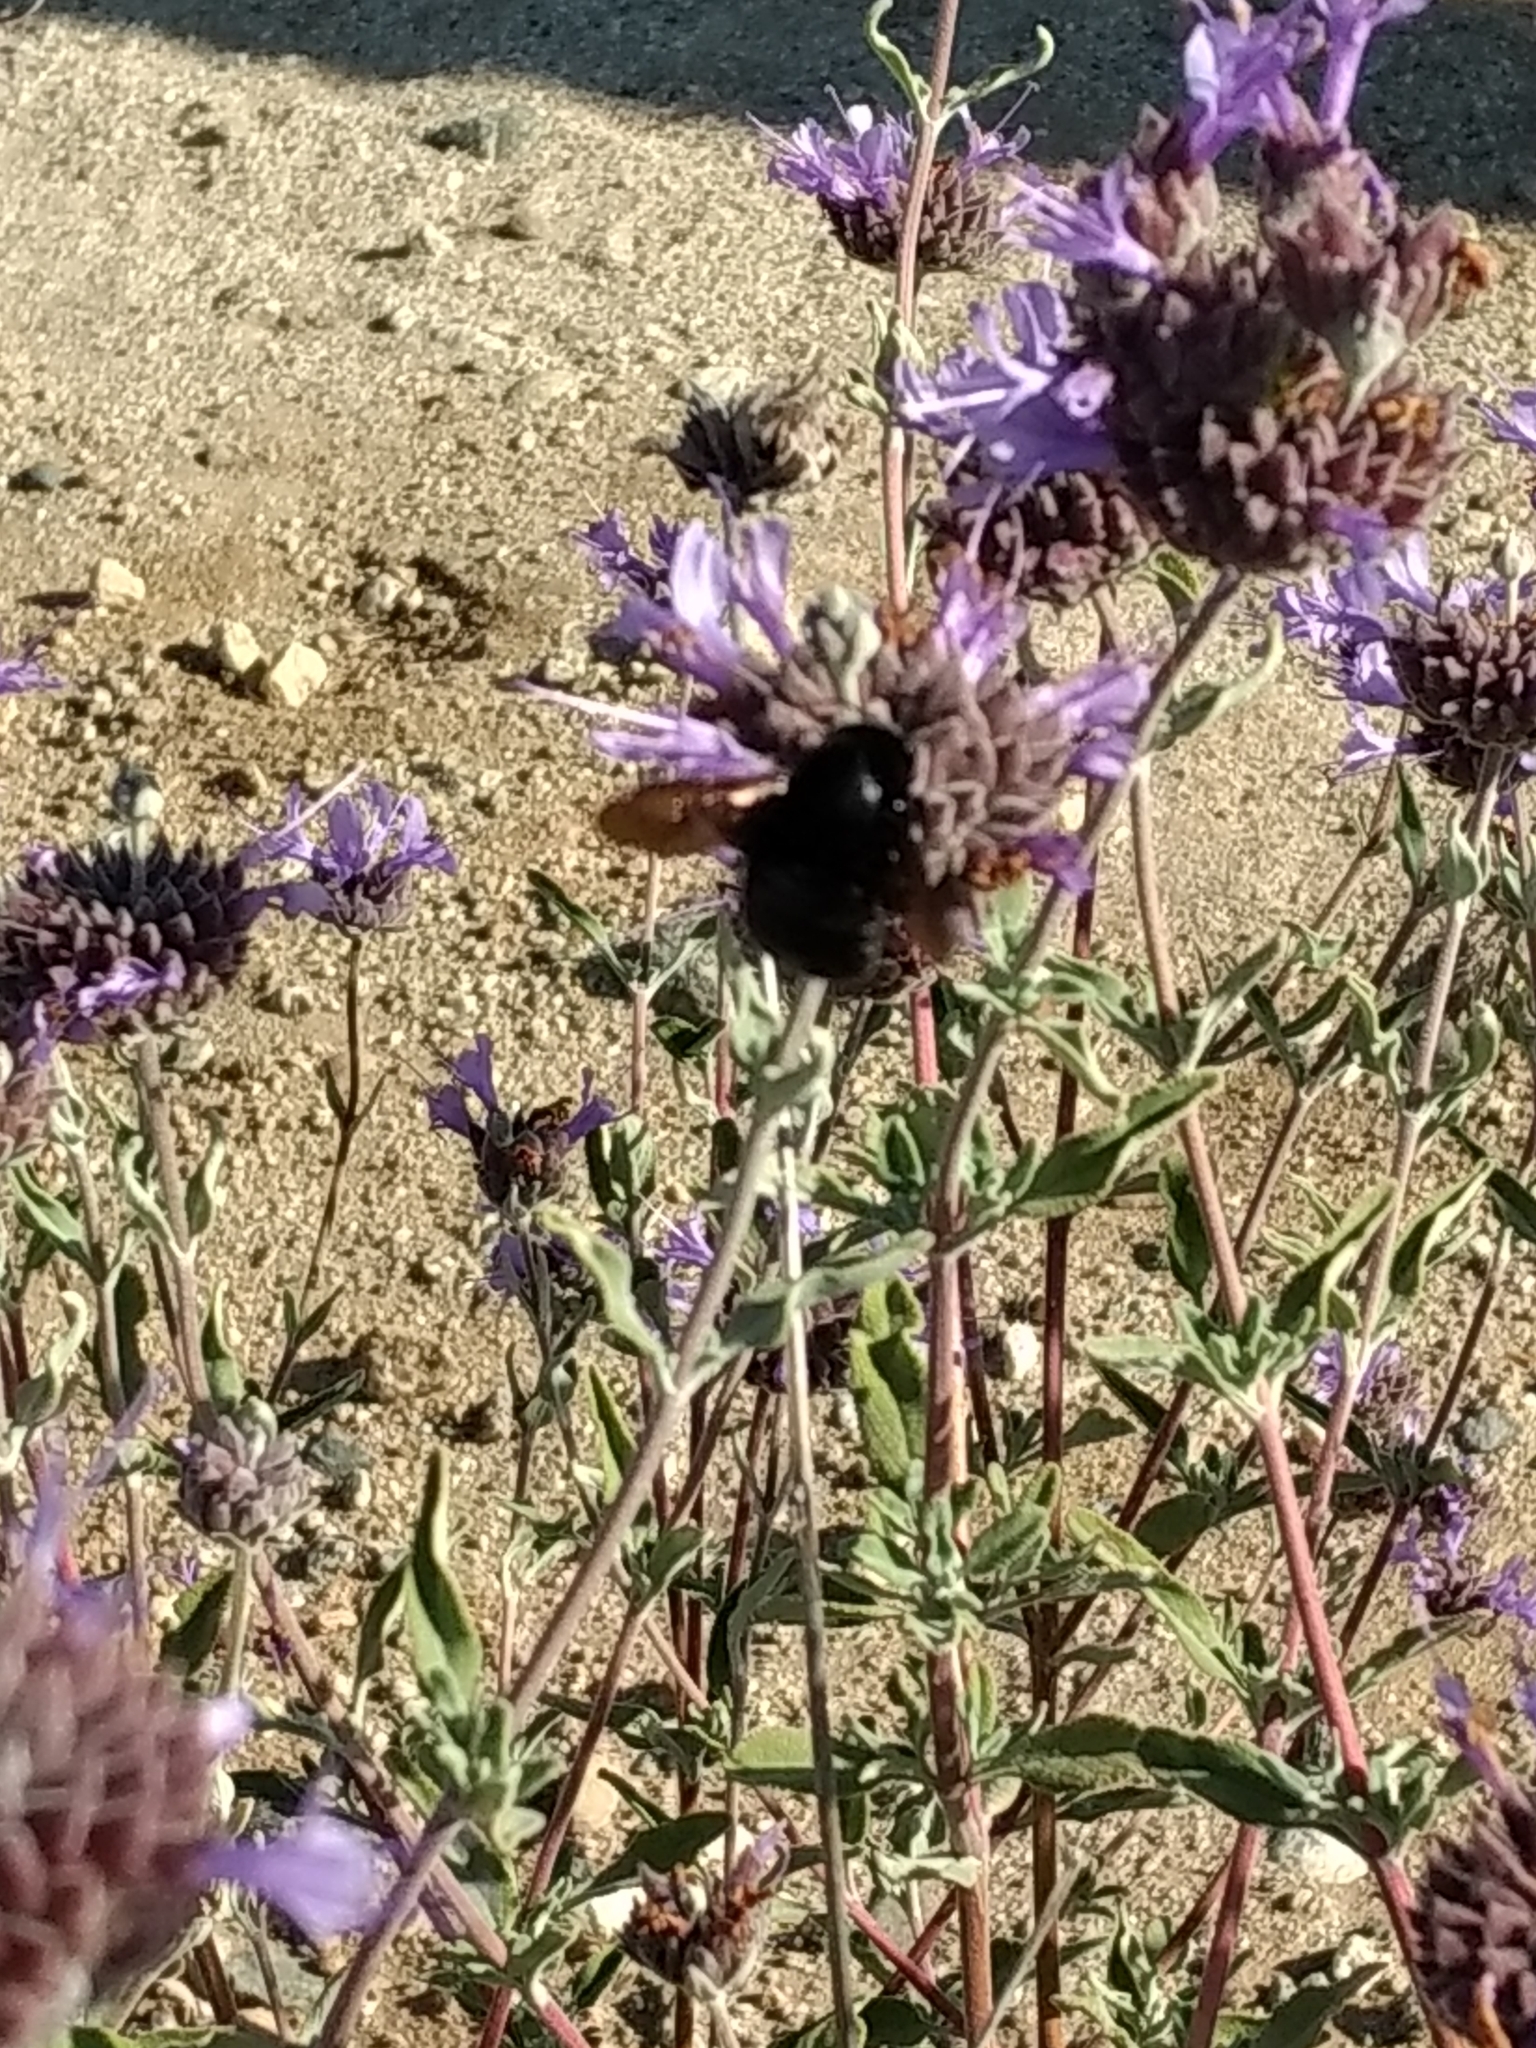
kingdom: Animalia
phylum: Arthropoda
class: Insecta
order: Hymenoptera
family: Apidae
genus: Xylocopa
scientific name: Xylocopa sonorina
